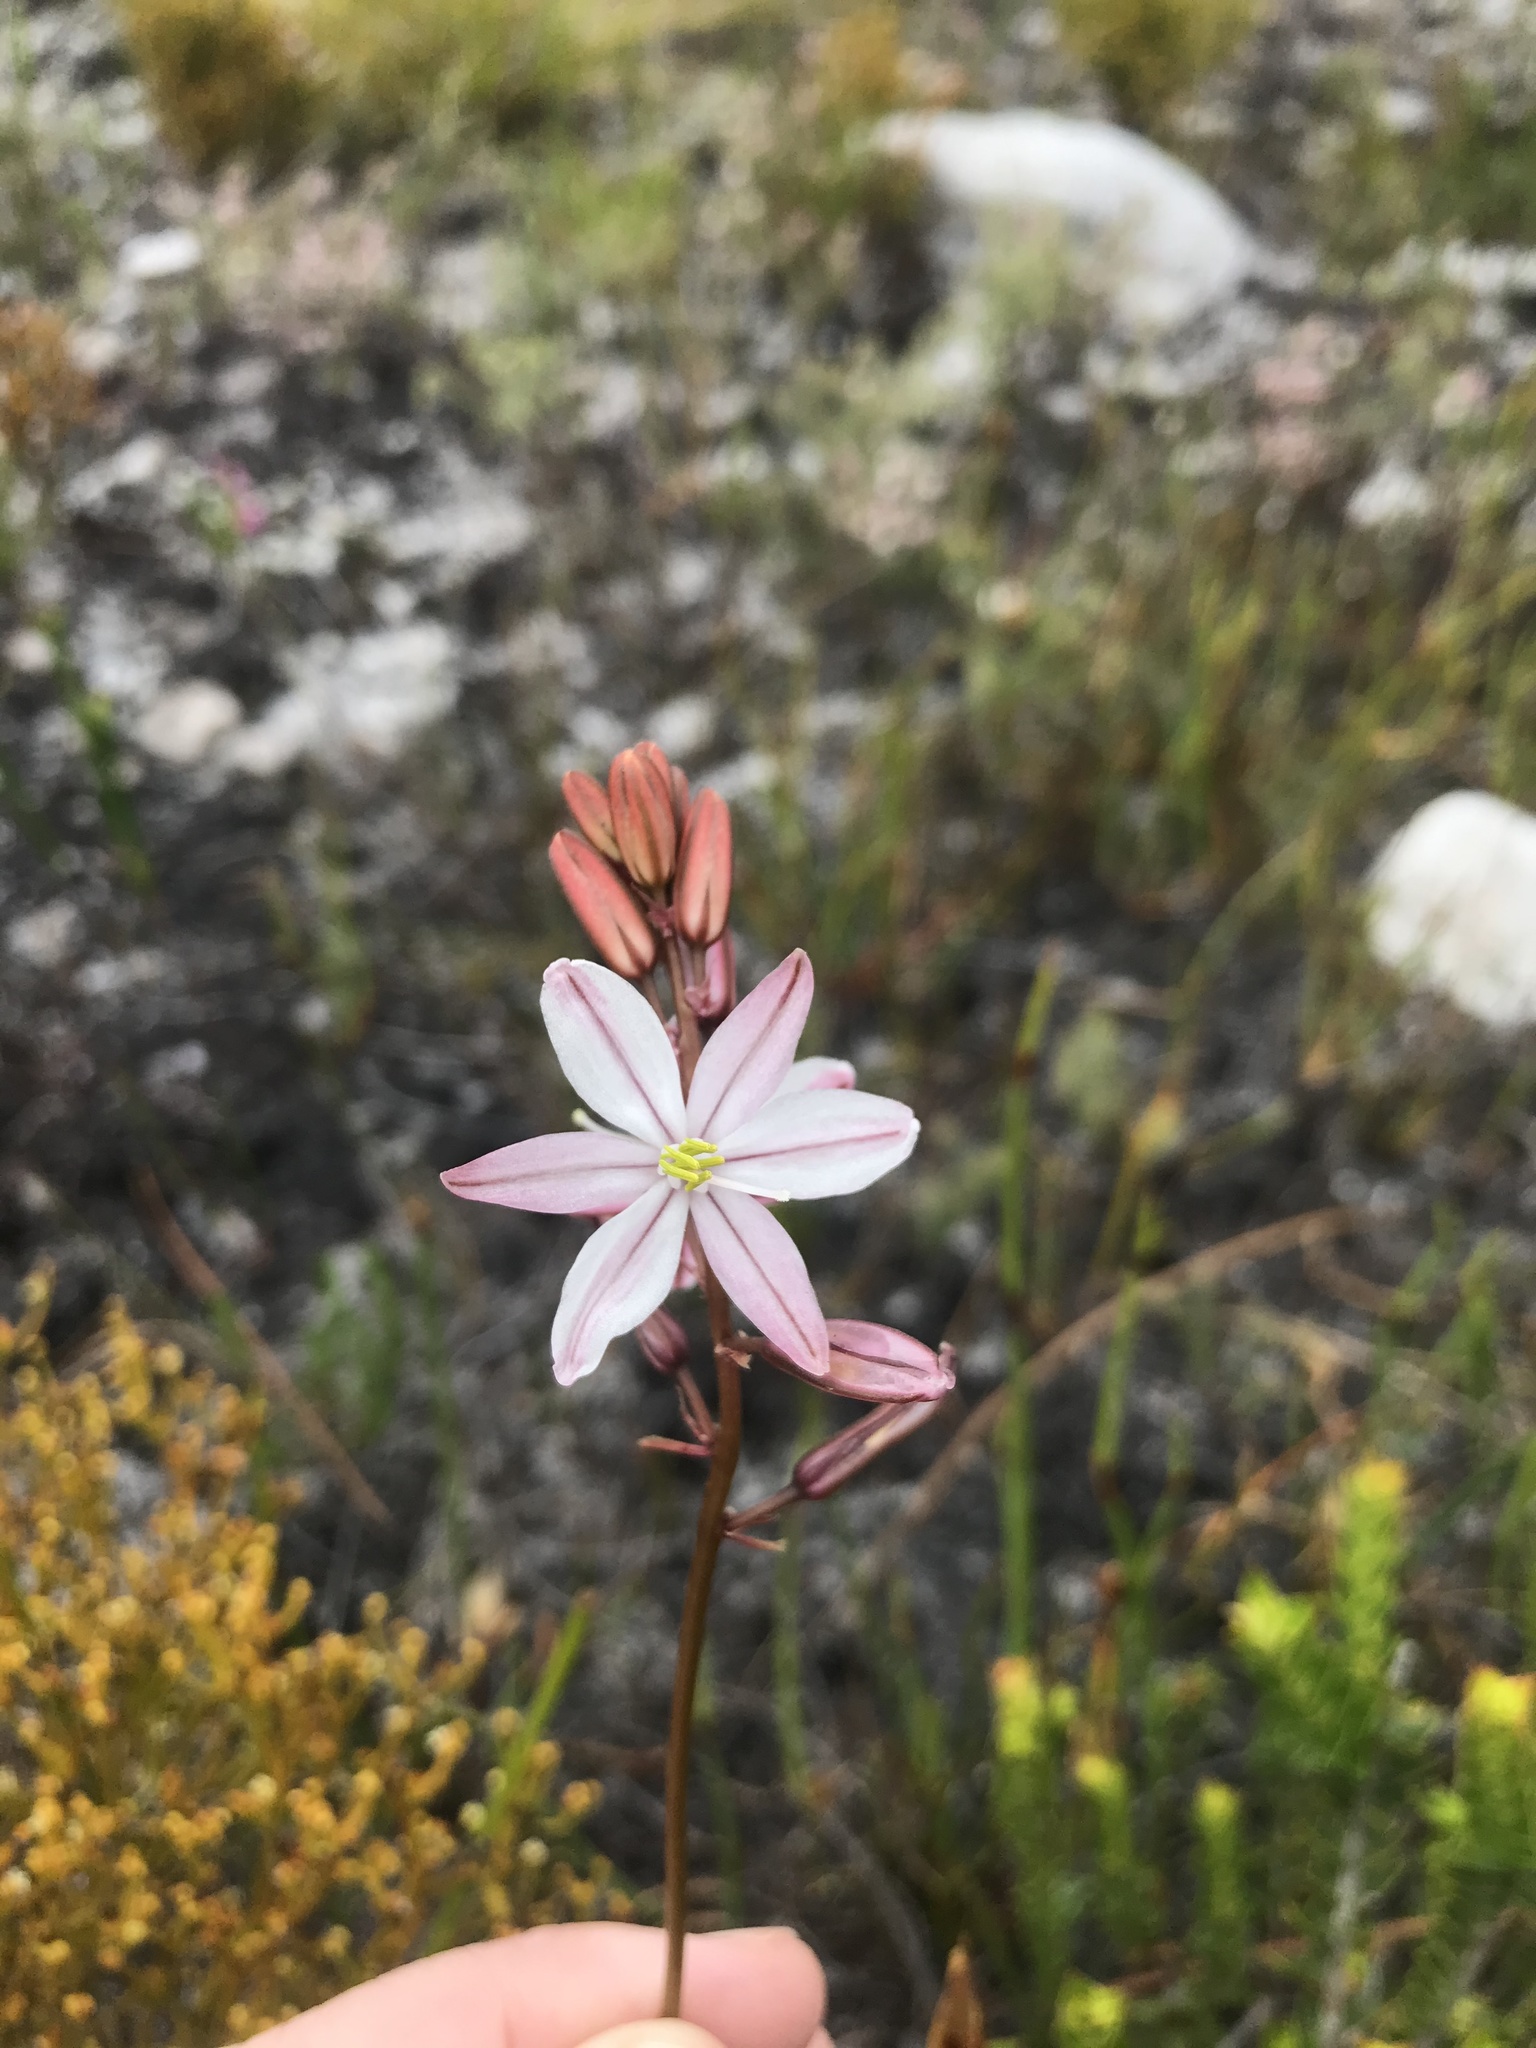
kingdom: Plantae
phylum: Tracheophyta
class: Liliopsida
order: Asparagales
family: Asparagaceae
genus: Drimia
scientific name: Drimia exuviata
